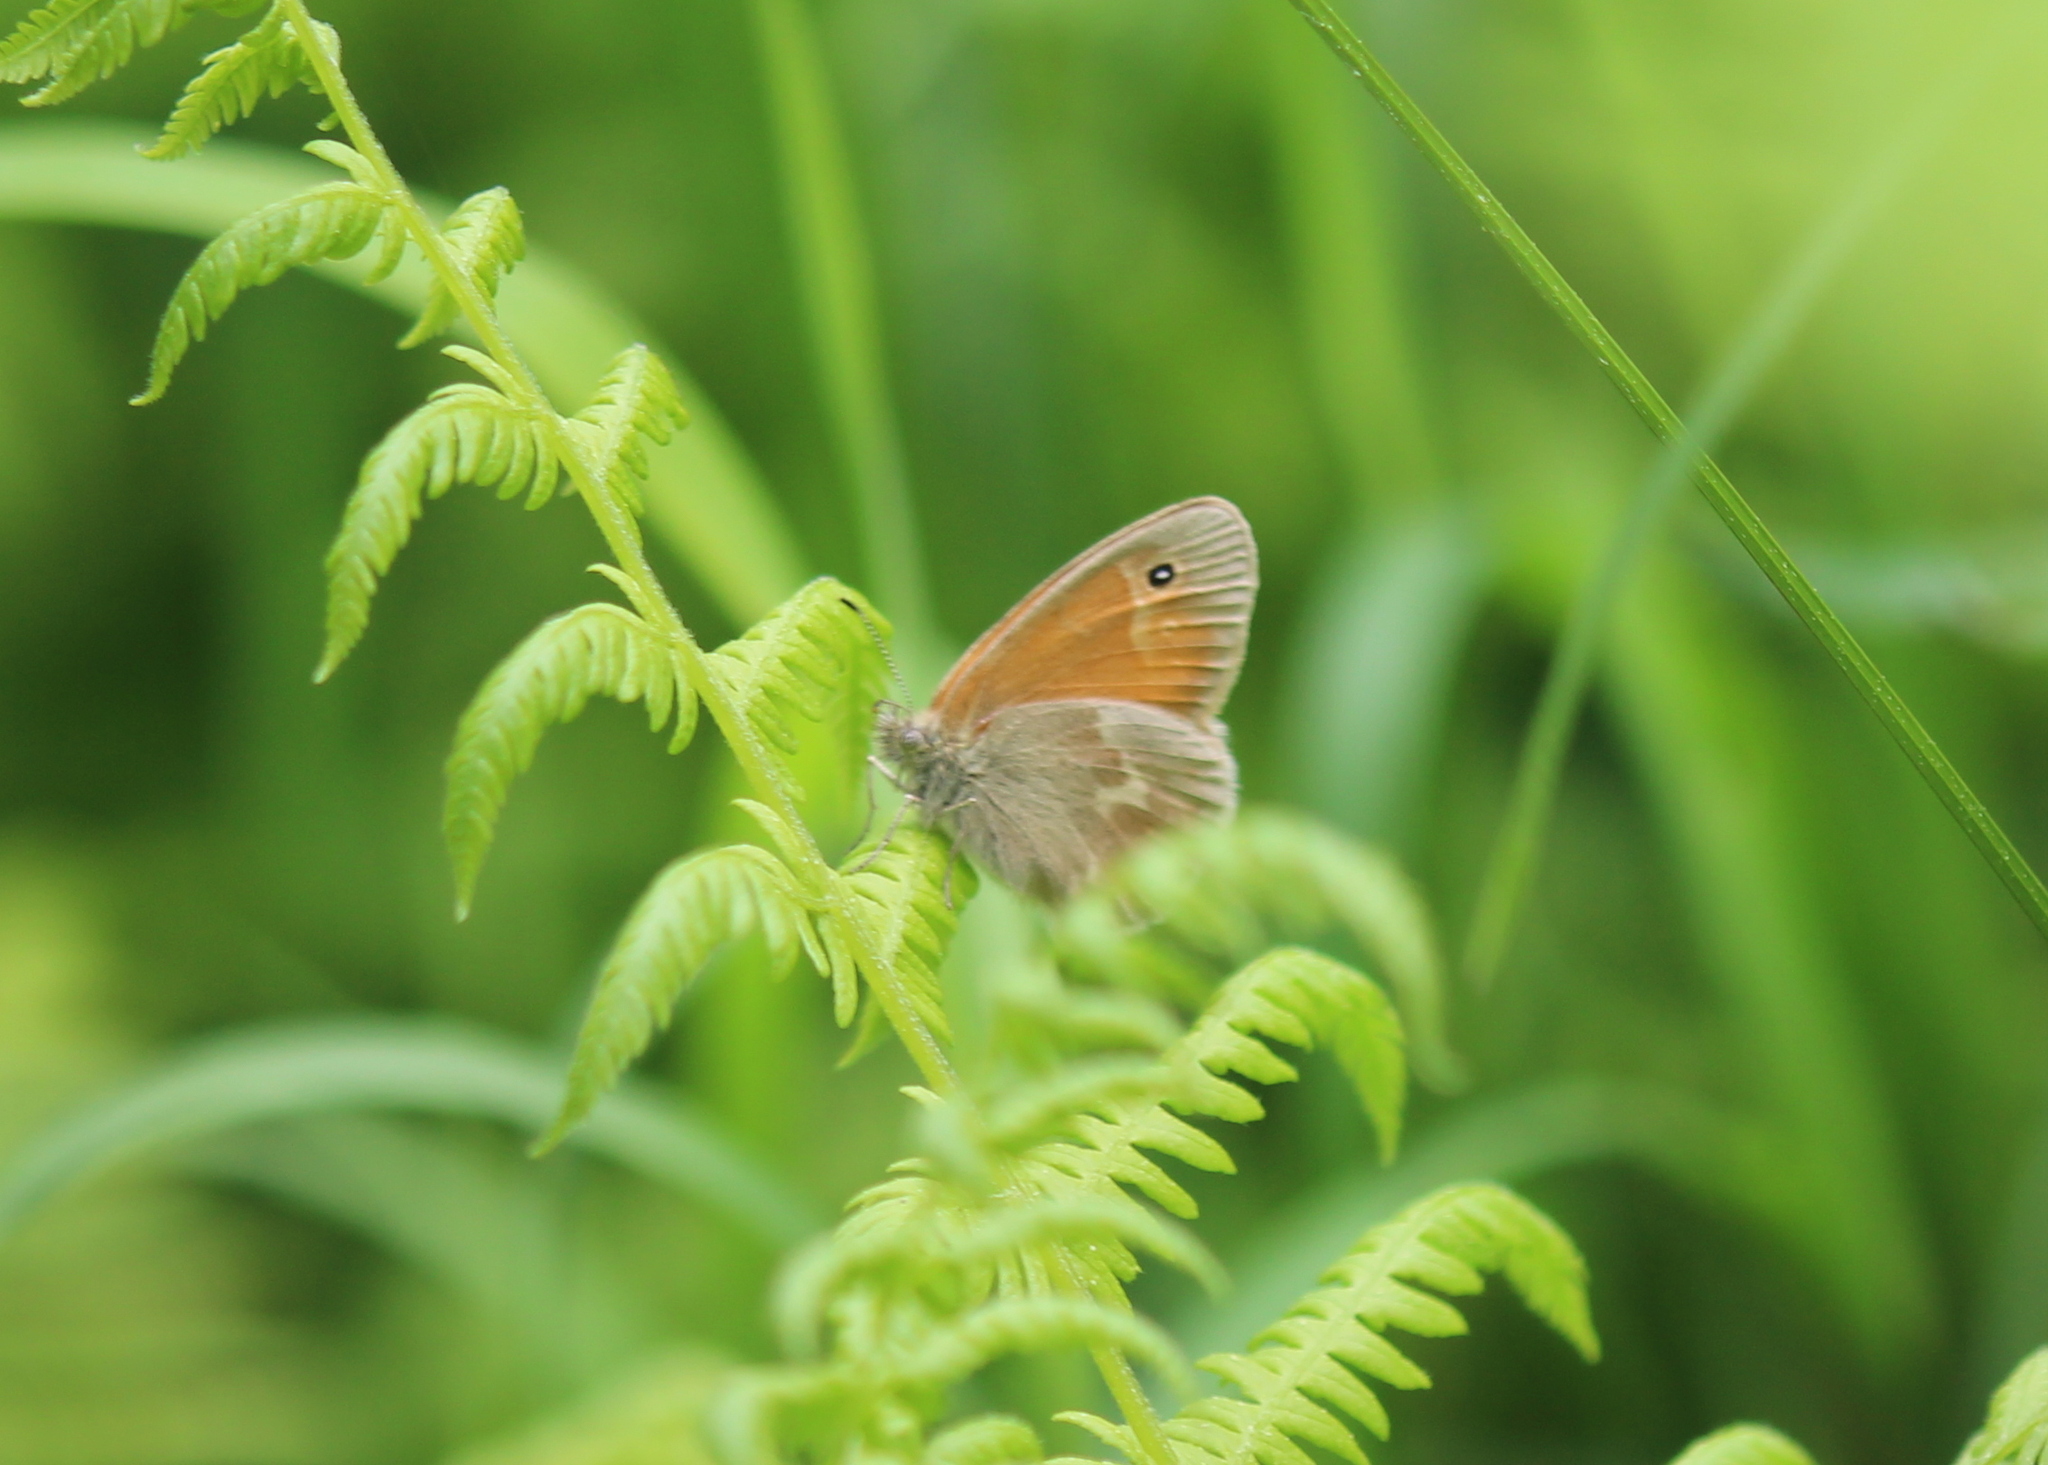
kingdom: Animalia
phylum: Arthropoda
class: Insecta
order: Lepidoptera
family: Nymphalidae
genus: Coenonympha
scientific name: Coenonympha california
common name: Common ringlet
